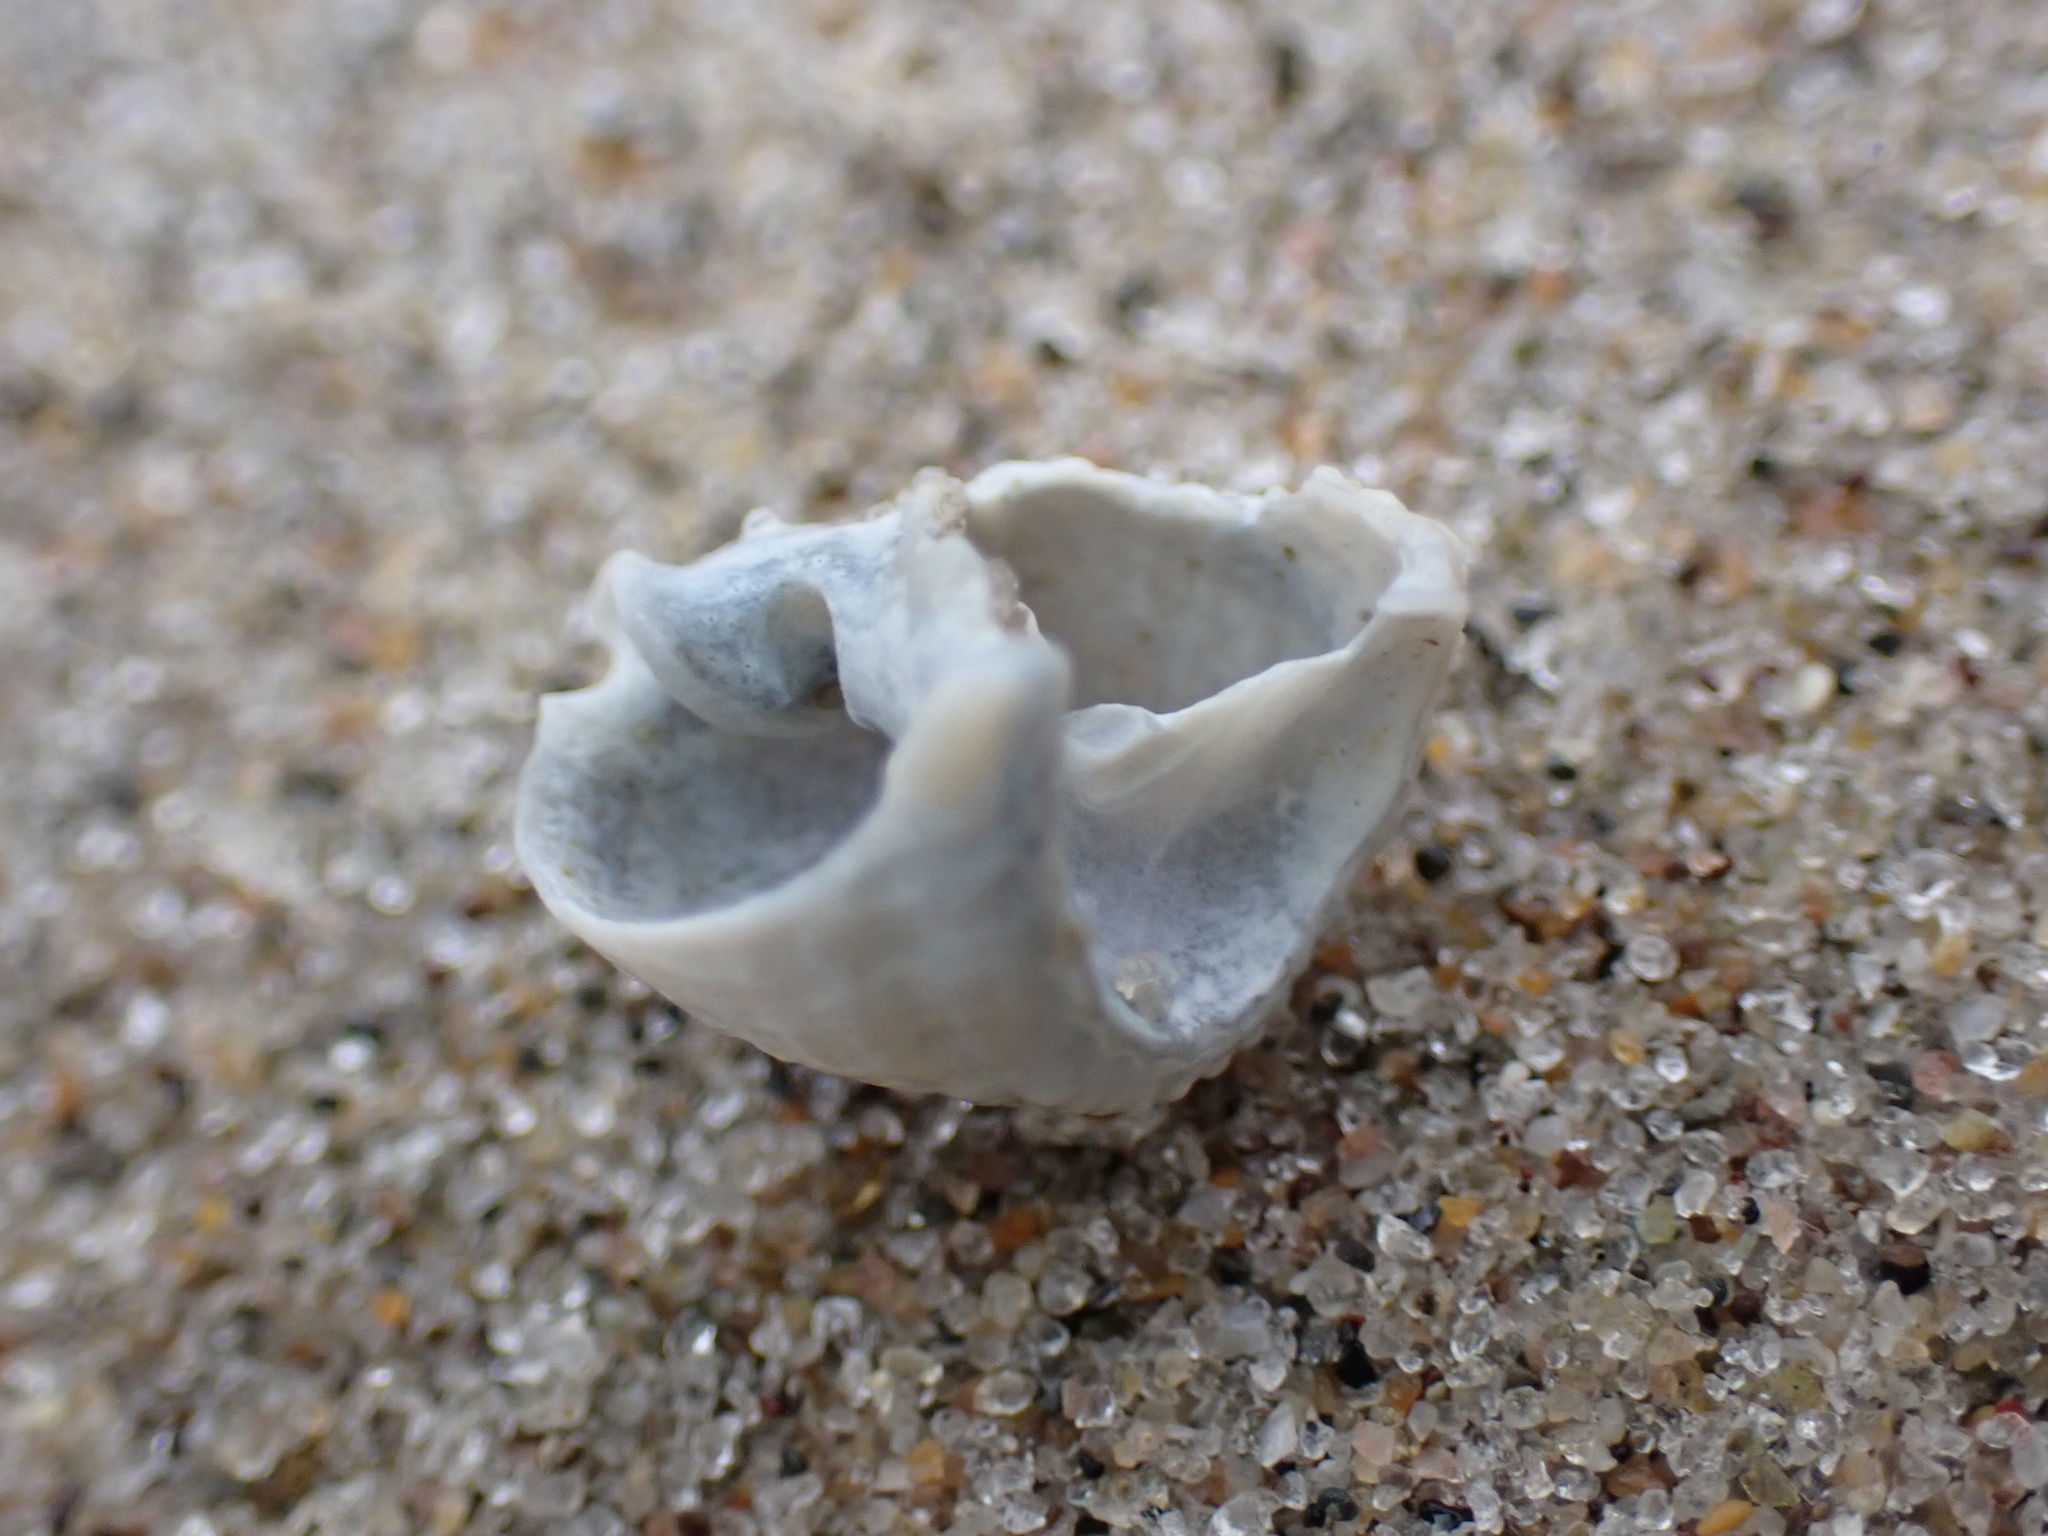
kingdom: Animalia
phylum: Mollusca
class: Gastropoda
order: Neogastropoda
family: Nassariidae
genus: Ilyanassa
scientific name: Ilyanassa trivittata
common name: Three-line mudsnail
